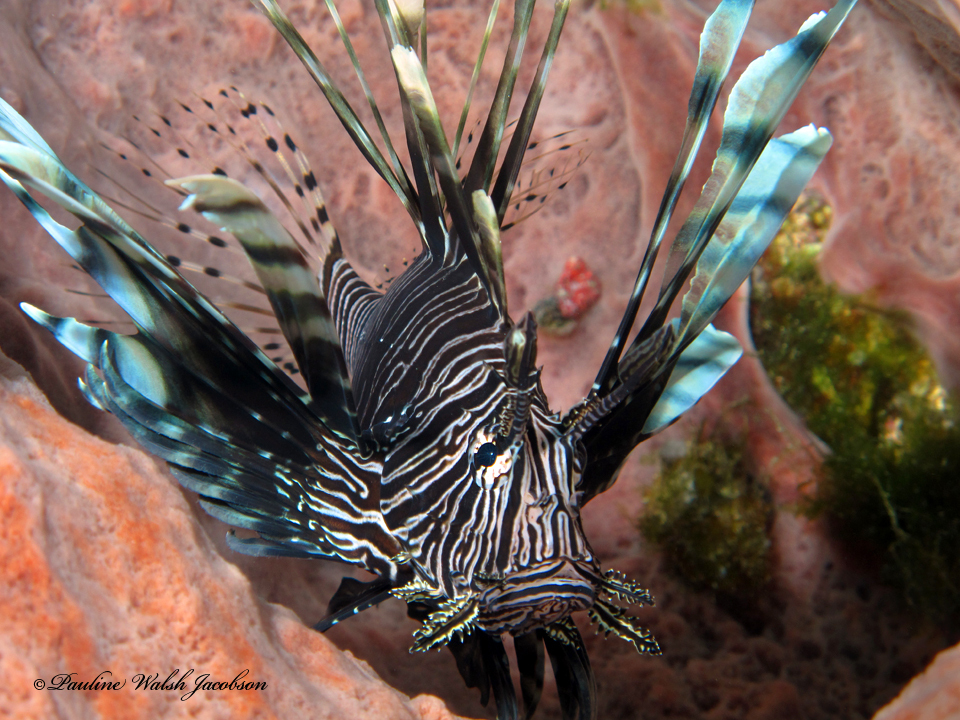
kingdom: Animalia
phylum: Chordata
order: Scorpaeniformes
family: Scorpaenidae
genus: Pterois
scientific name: Pterois volitans
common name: Lionfish
